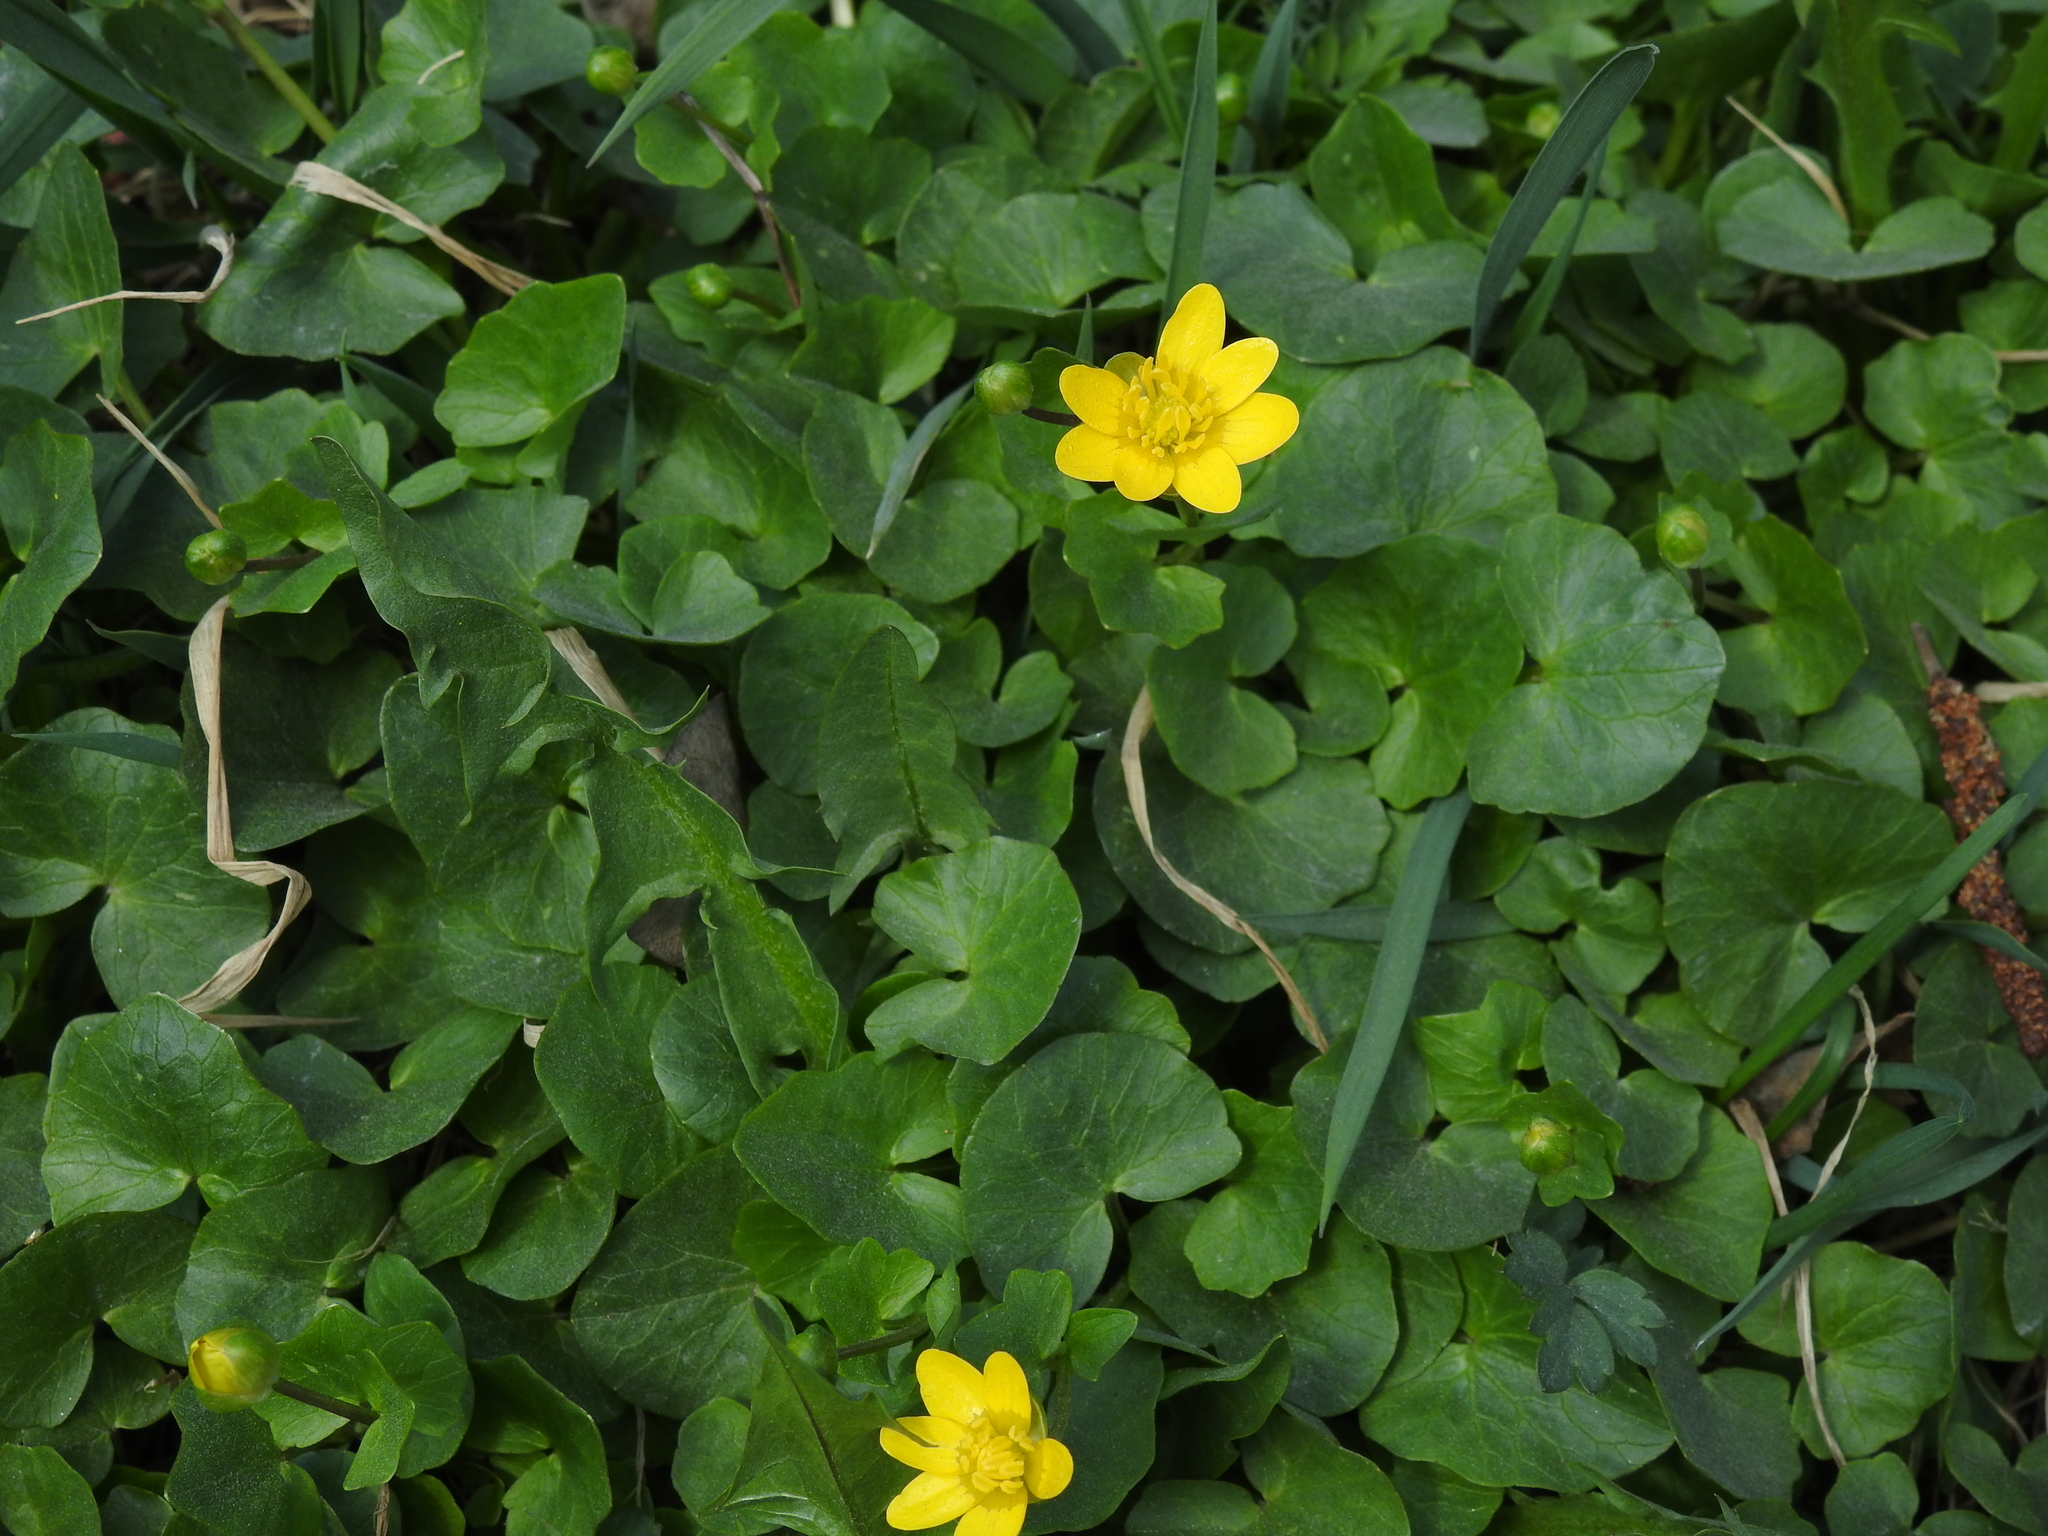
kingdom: Plantae
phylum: Tracheophyta
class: Magnoliopsida
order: Ranunculales
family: Ranunculaceae
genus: Ficaria
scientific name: Ficaria verna
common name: Lesser celandine
